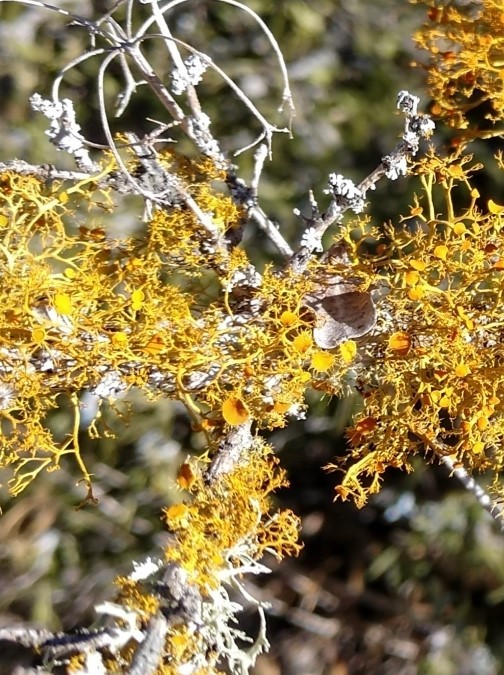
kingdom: Fungi
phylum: Ascomycota
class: Lecanoromycetes
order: Teloschistales
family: Teloschistaceae
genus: Niorma
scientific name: Niorma chrysophthalma
